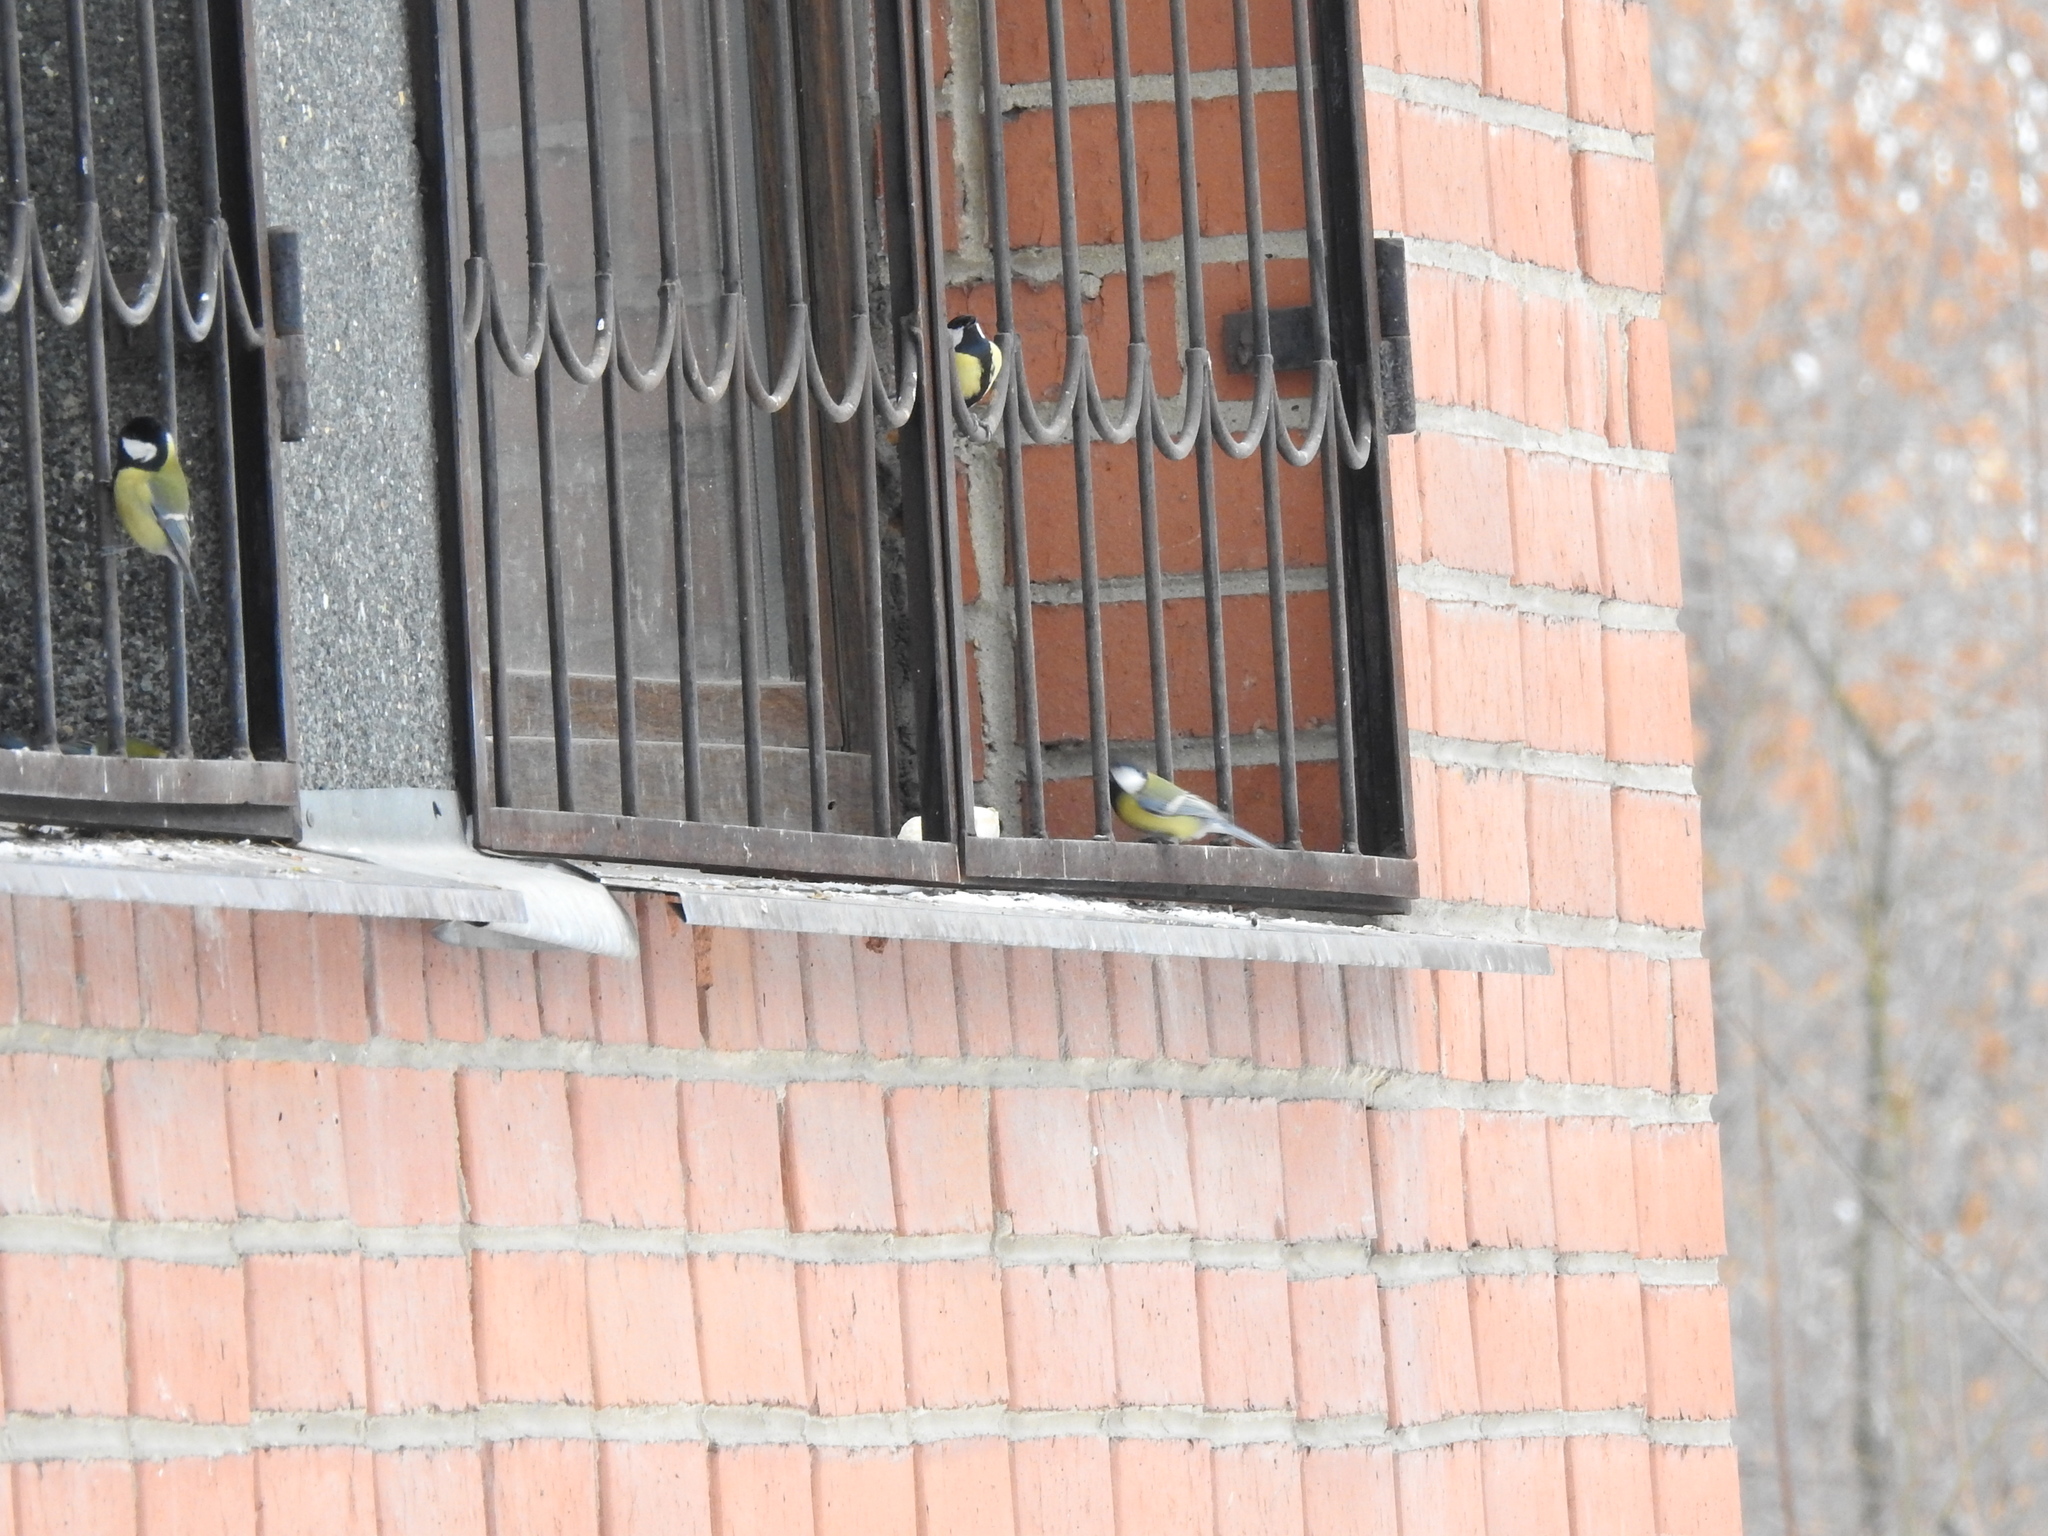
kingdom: Animalia
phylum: Chordata
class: Aves
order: Passeriformes
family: Paridae
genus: Parus
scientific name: Parus major
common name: Great tit
